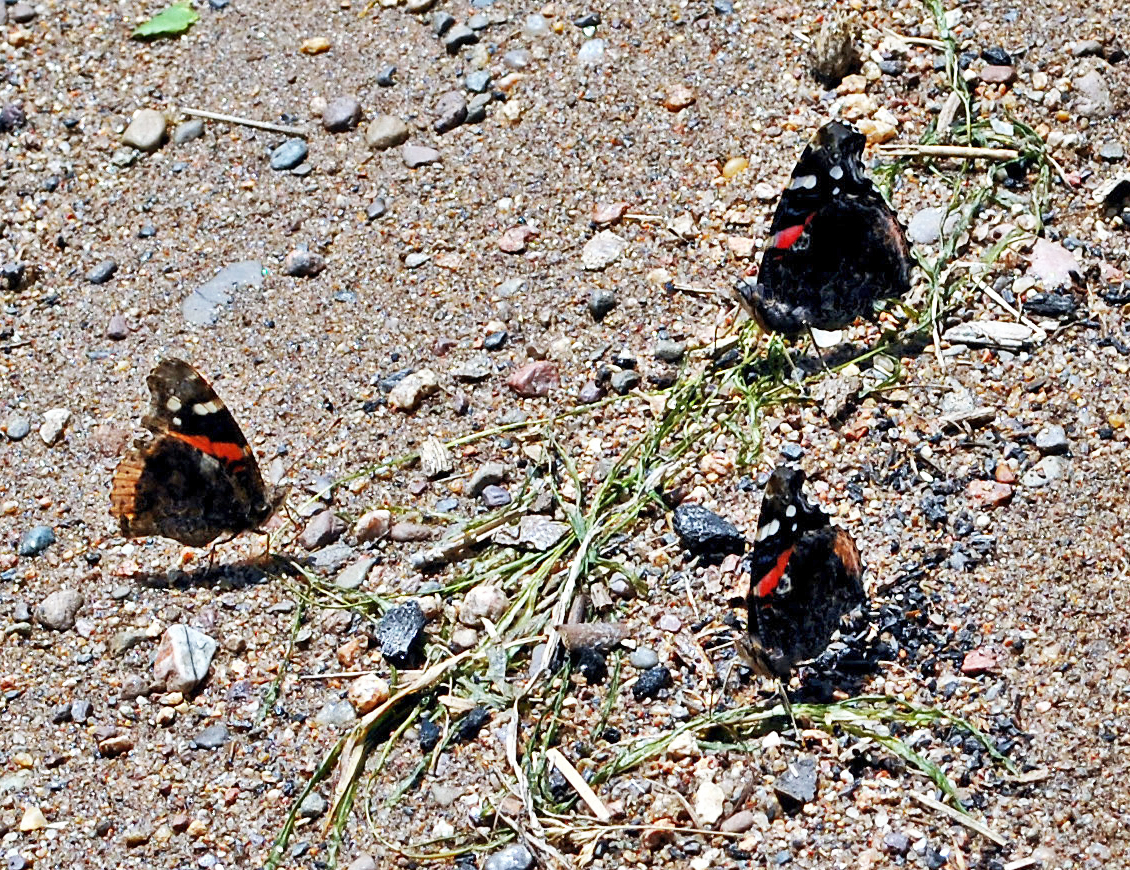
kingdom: Animalia
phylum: Arthropoda
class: Insecta
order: Lepidoptera
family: Nymphalidae
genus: Vanessa
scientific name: Vanessa atalanta
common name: Red admiral
